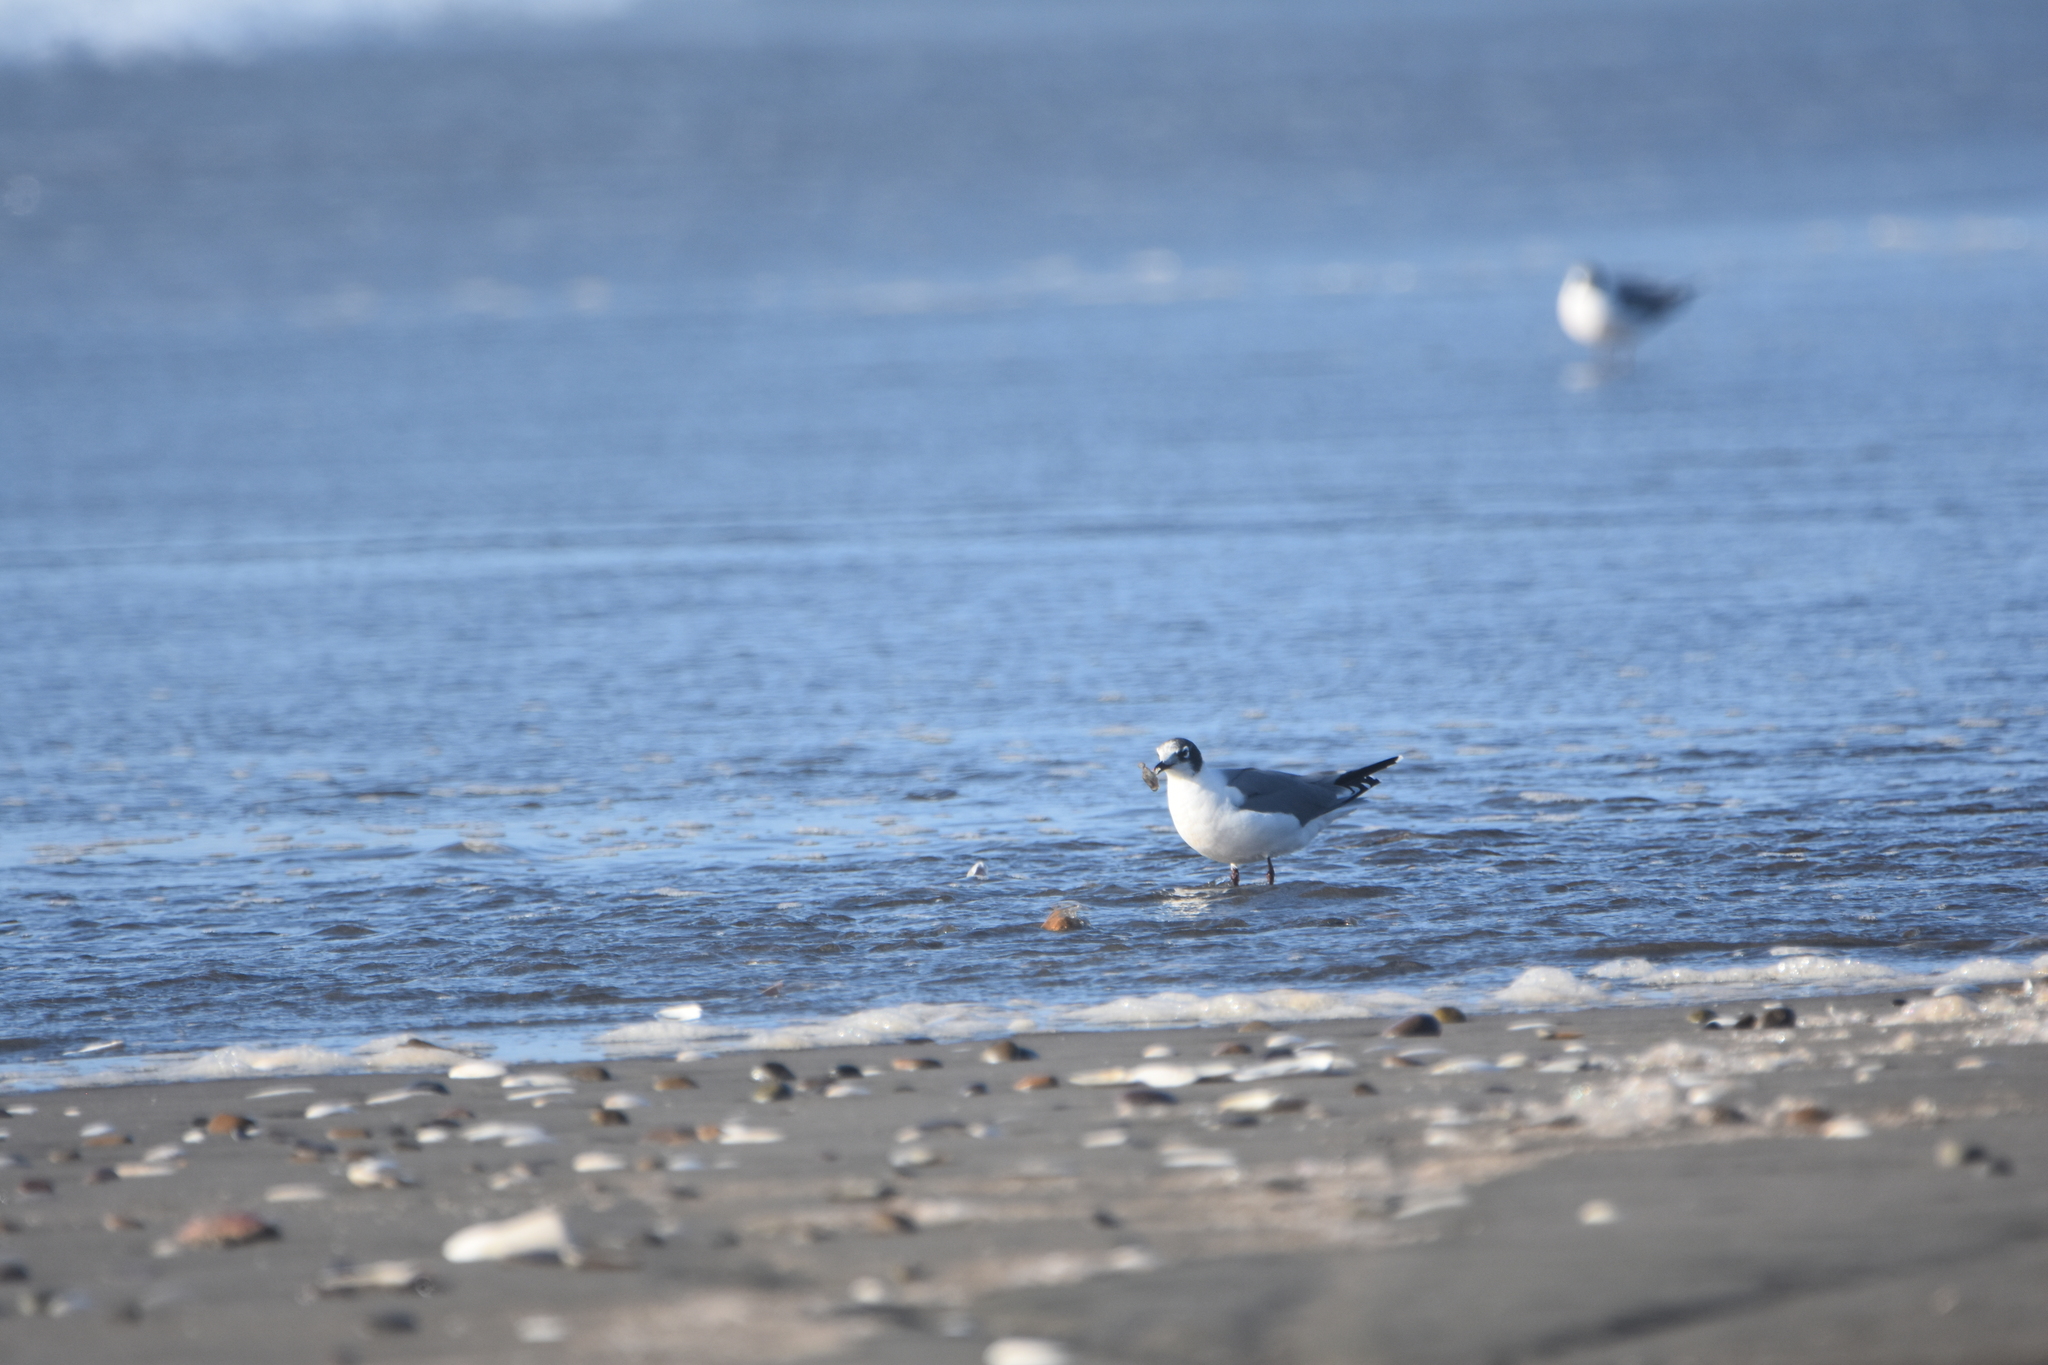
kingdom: Animalia
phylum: Chordata
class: Aves
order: Charadriiformes
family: Laridae
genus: Leucophaeus
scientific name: Leucophaeus pipixcan
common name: Franklin's gull
